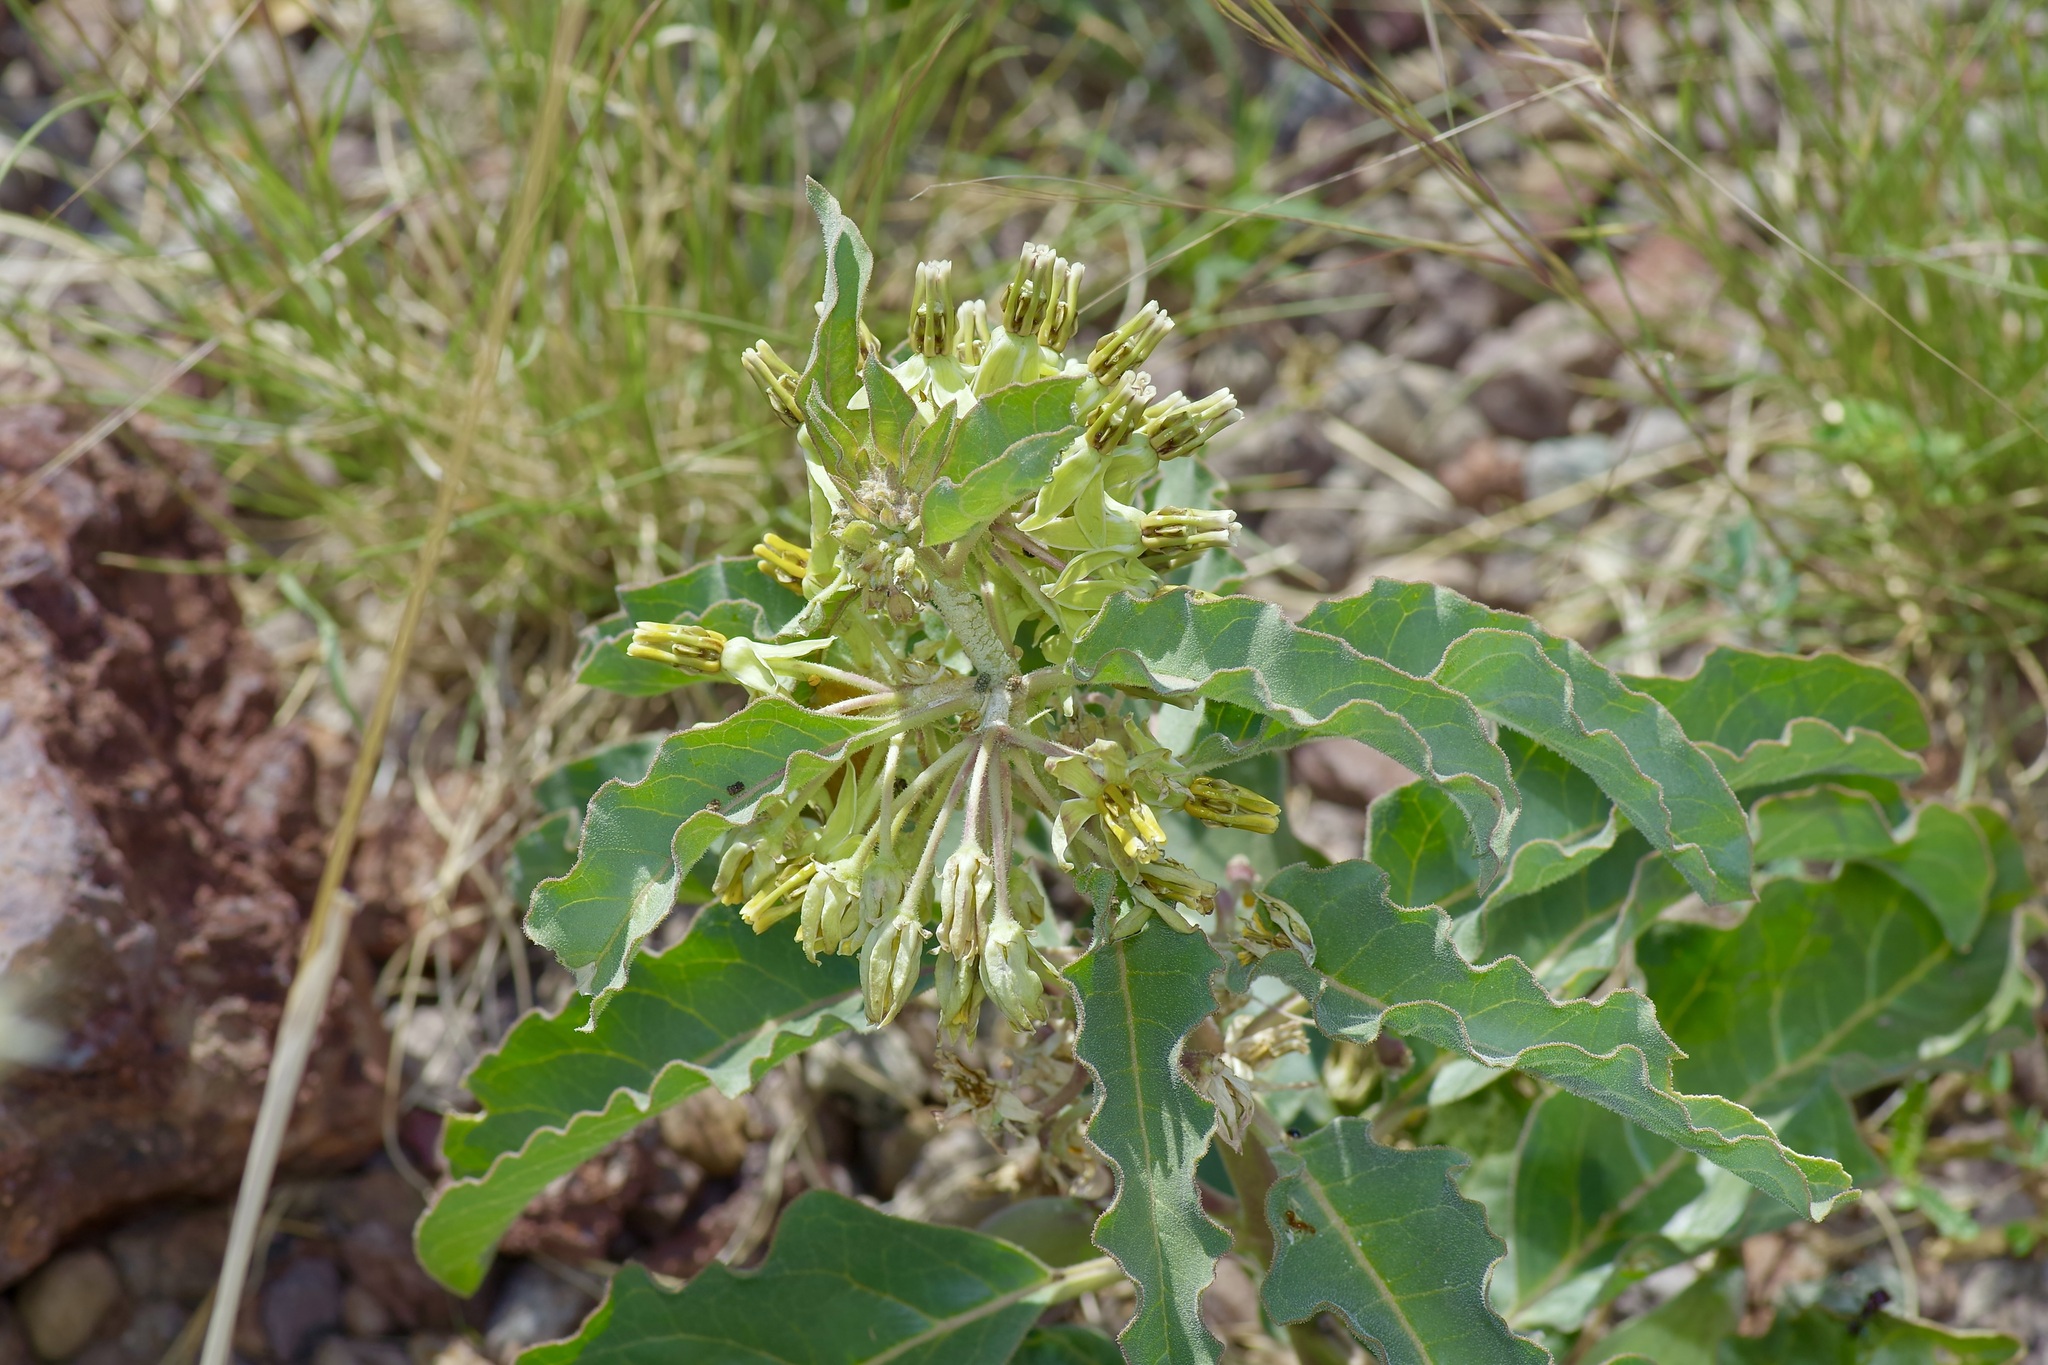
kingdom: Plantae
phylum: Tracheophyta
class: Magnoliopsida
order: Gentianales
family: Apocynaceae
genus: Asclepias
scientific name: Asclepias oenotheroides
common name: Zizotes milkweed
